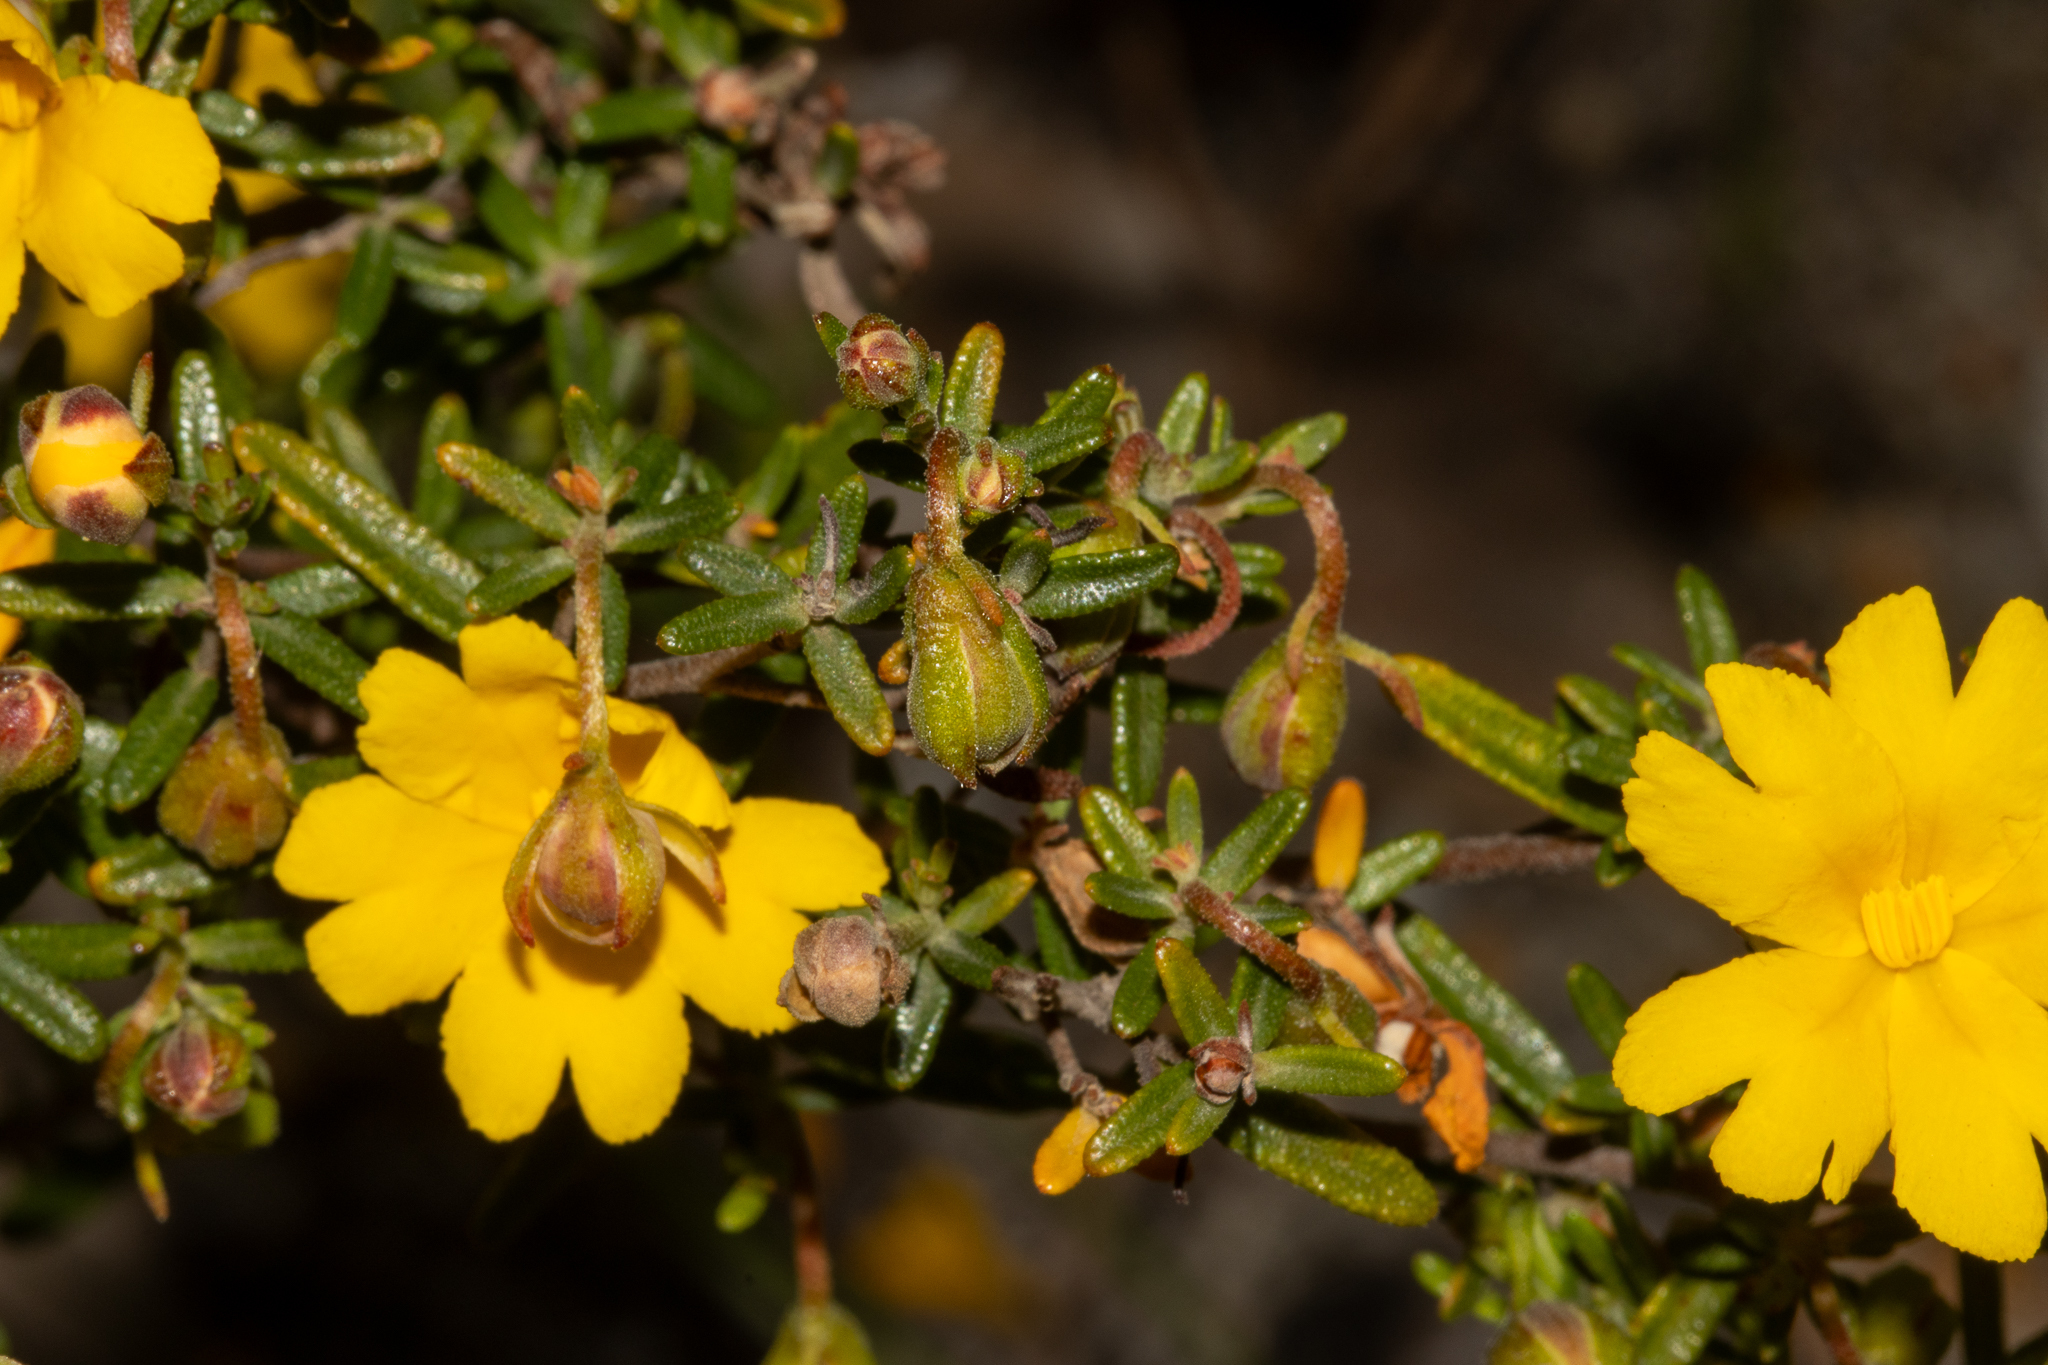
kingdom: Plantae
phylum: Tracheophyta
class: Magnoliopsida
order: Dilleniales
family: Dilleniaceae
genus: Hibbertia
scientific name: Hibbertia hypericoides
